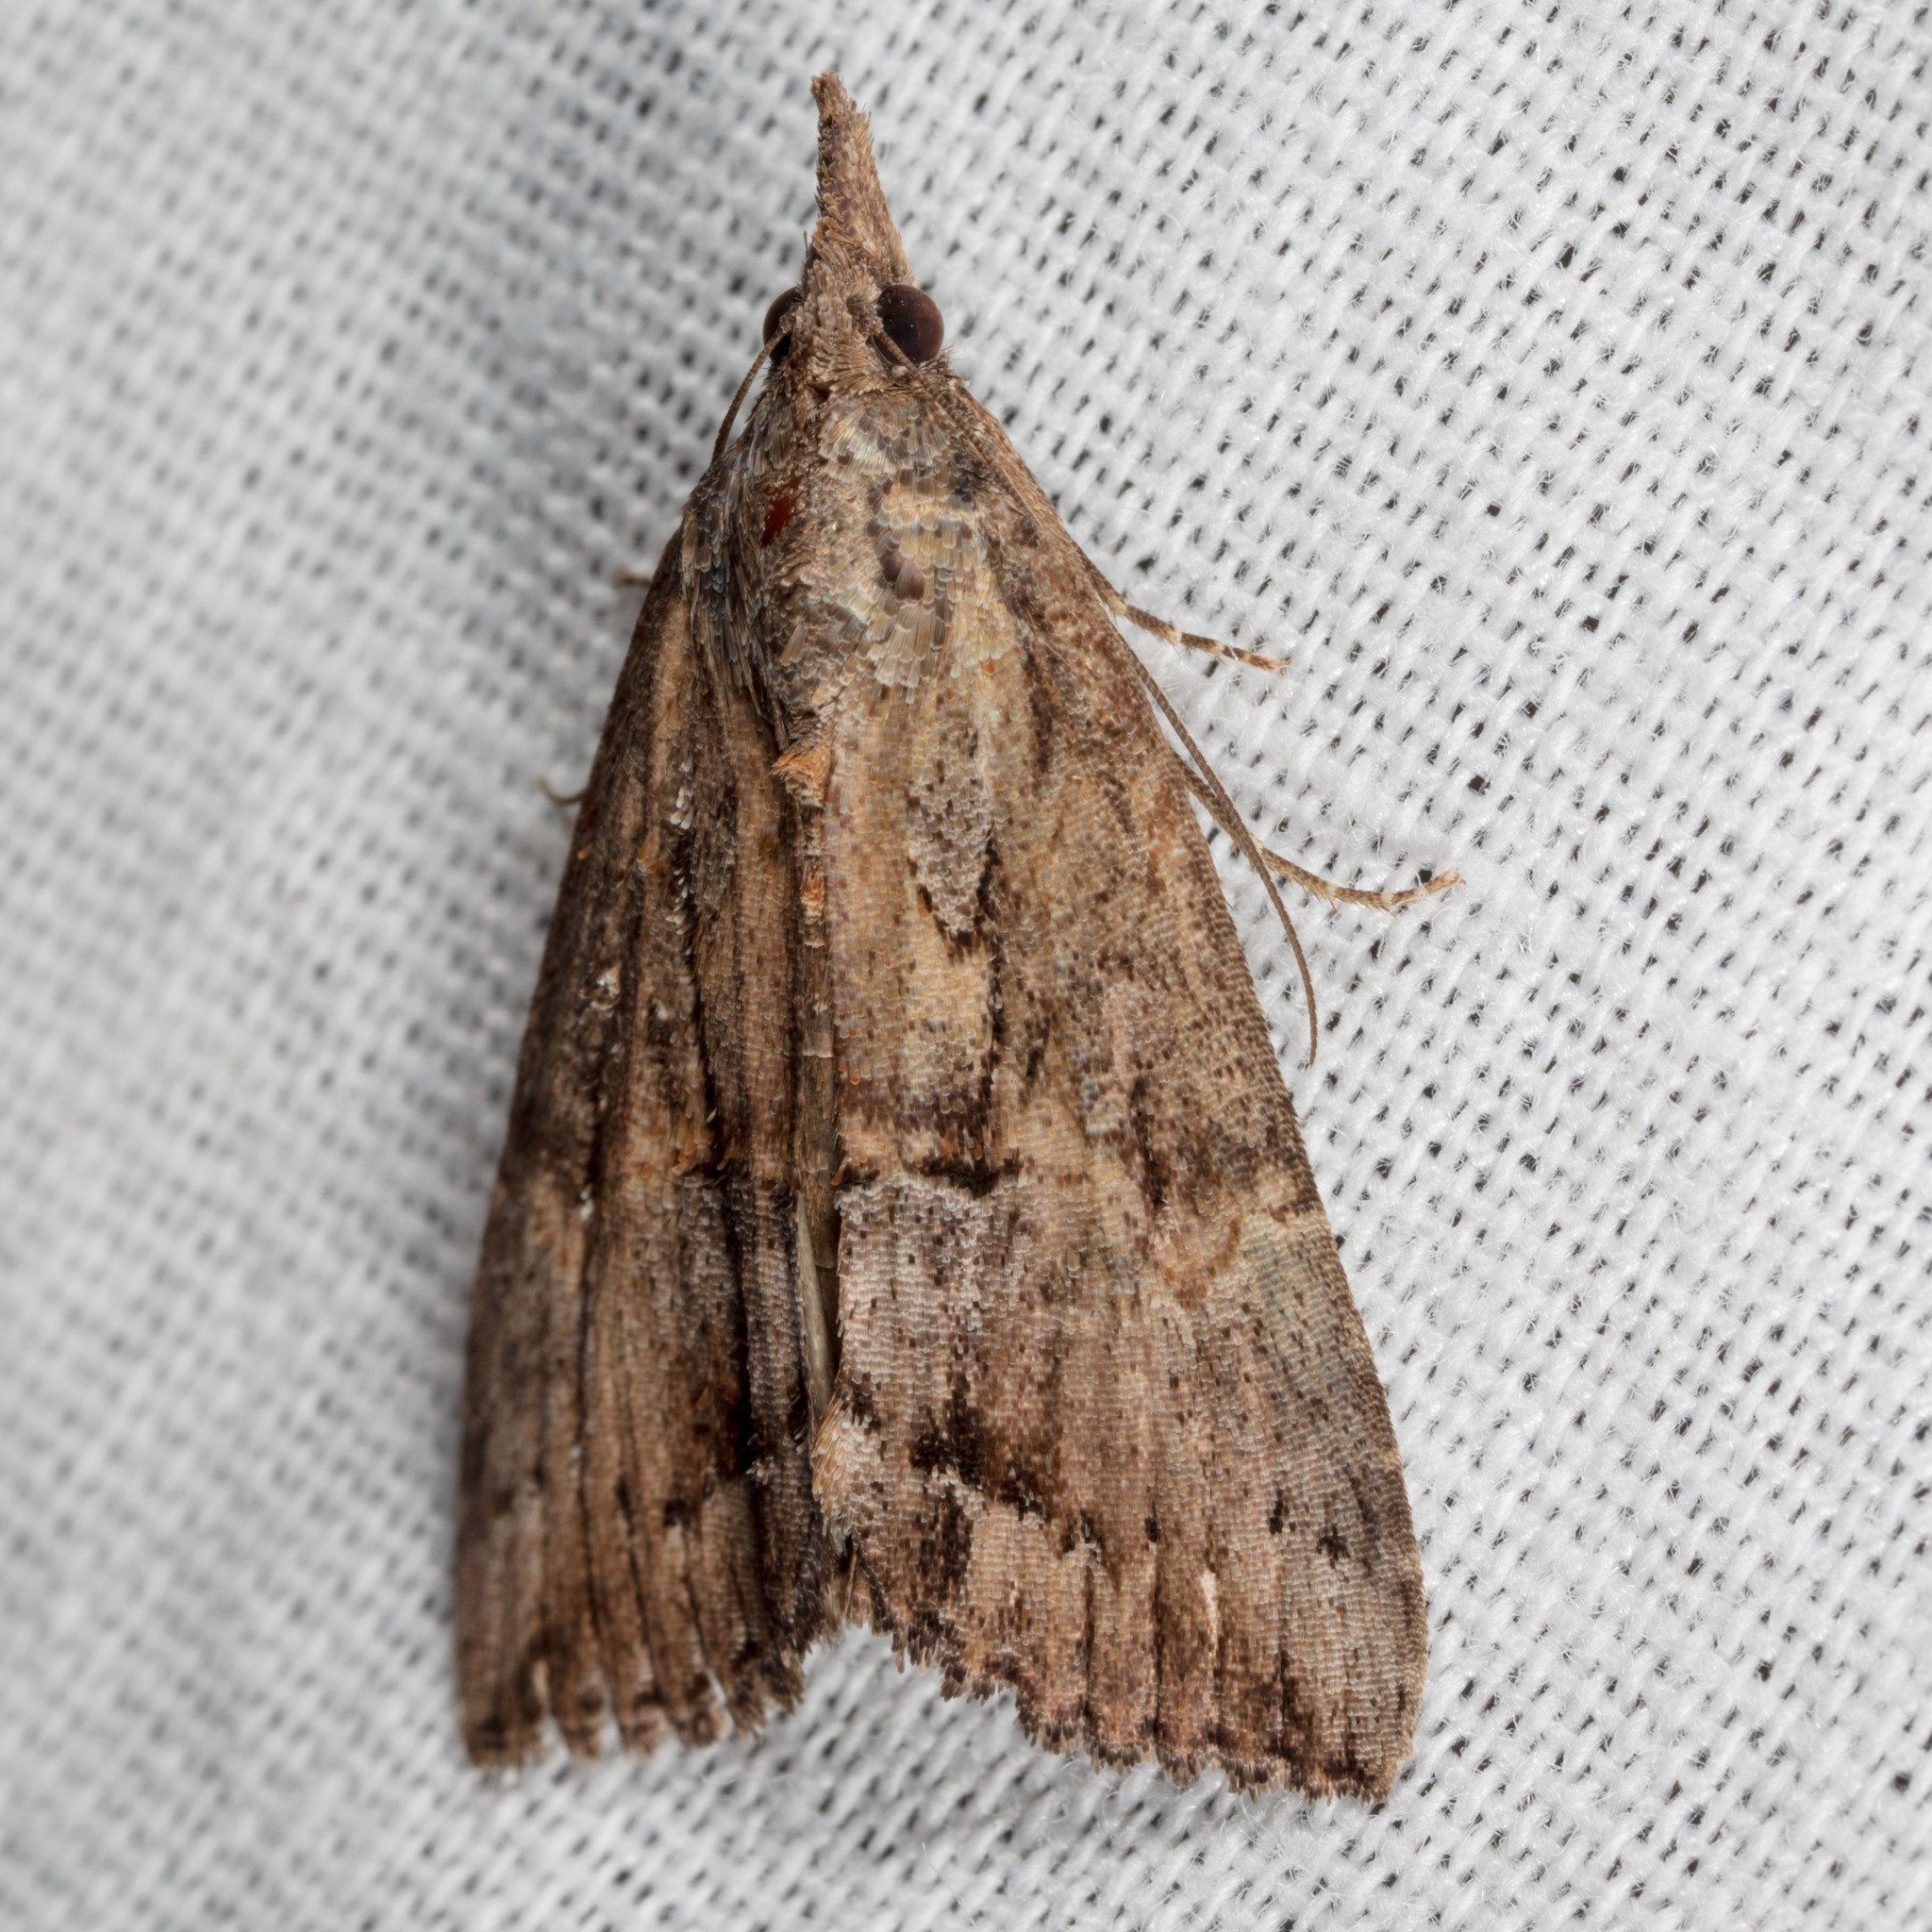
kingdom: Animalia
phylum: Arthropoda
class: Insecta
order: Lepidoptera
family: Erebidae
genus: Hypena
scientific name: Hypena scabra
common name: Green cloverworm
